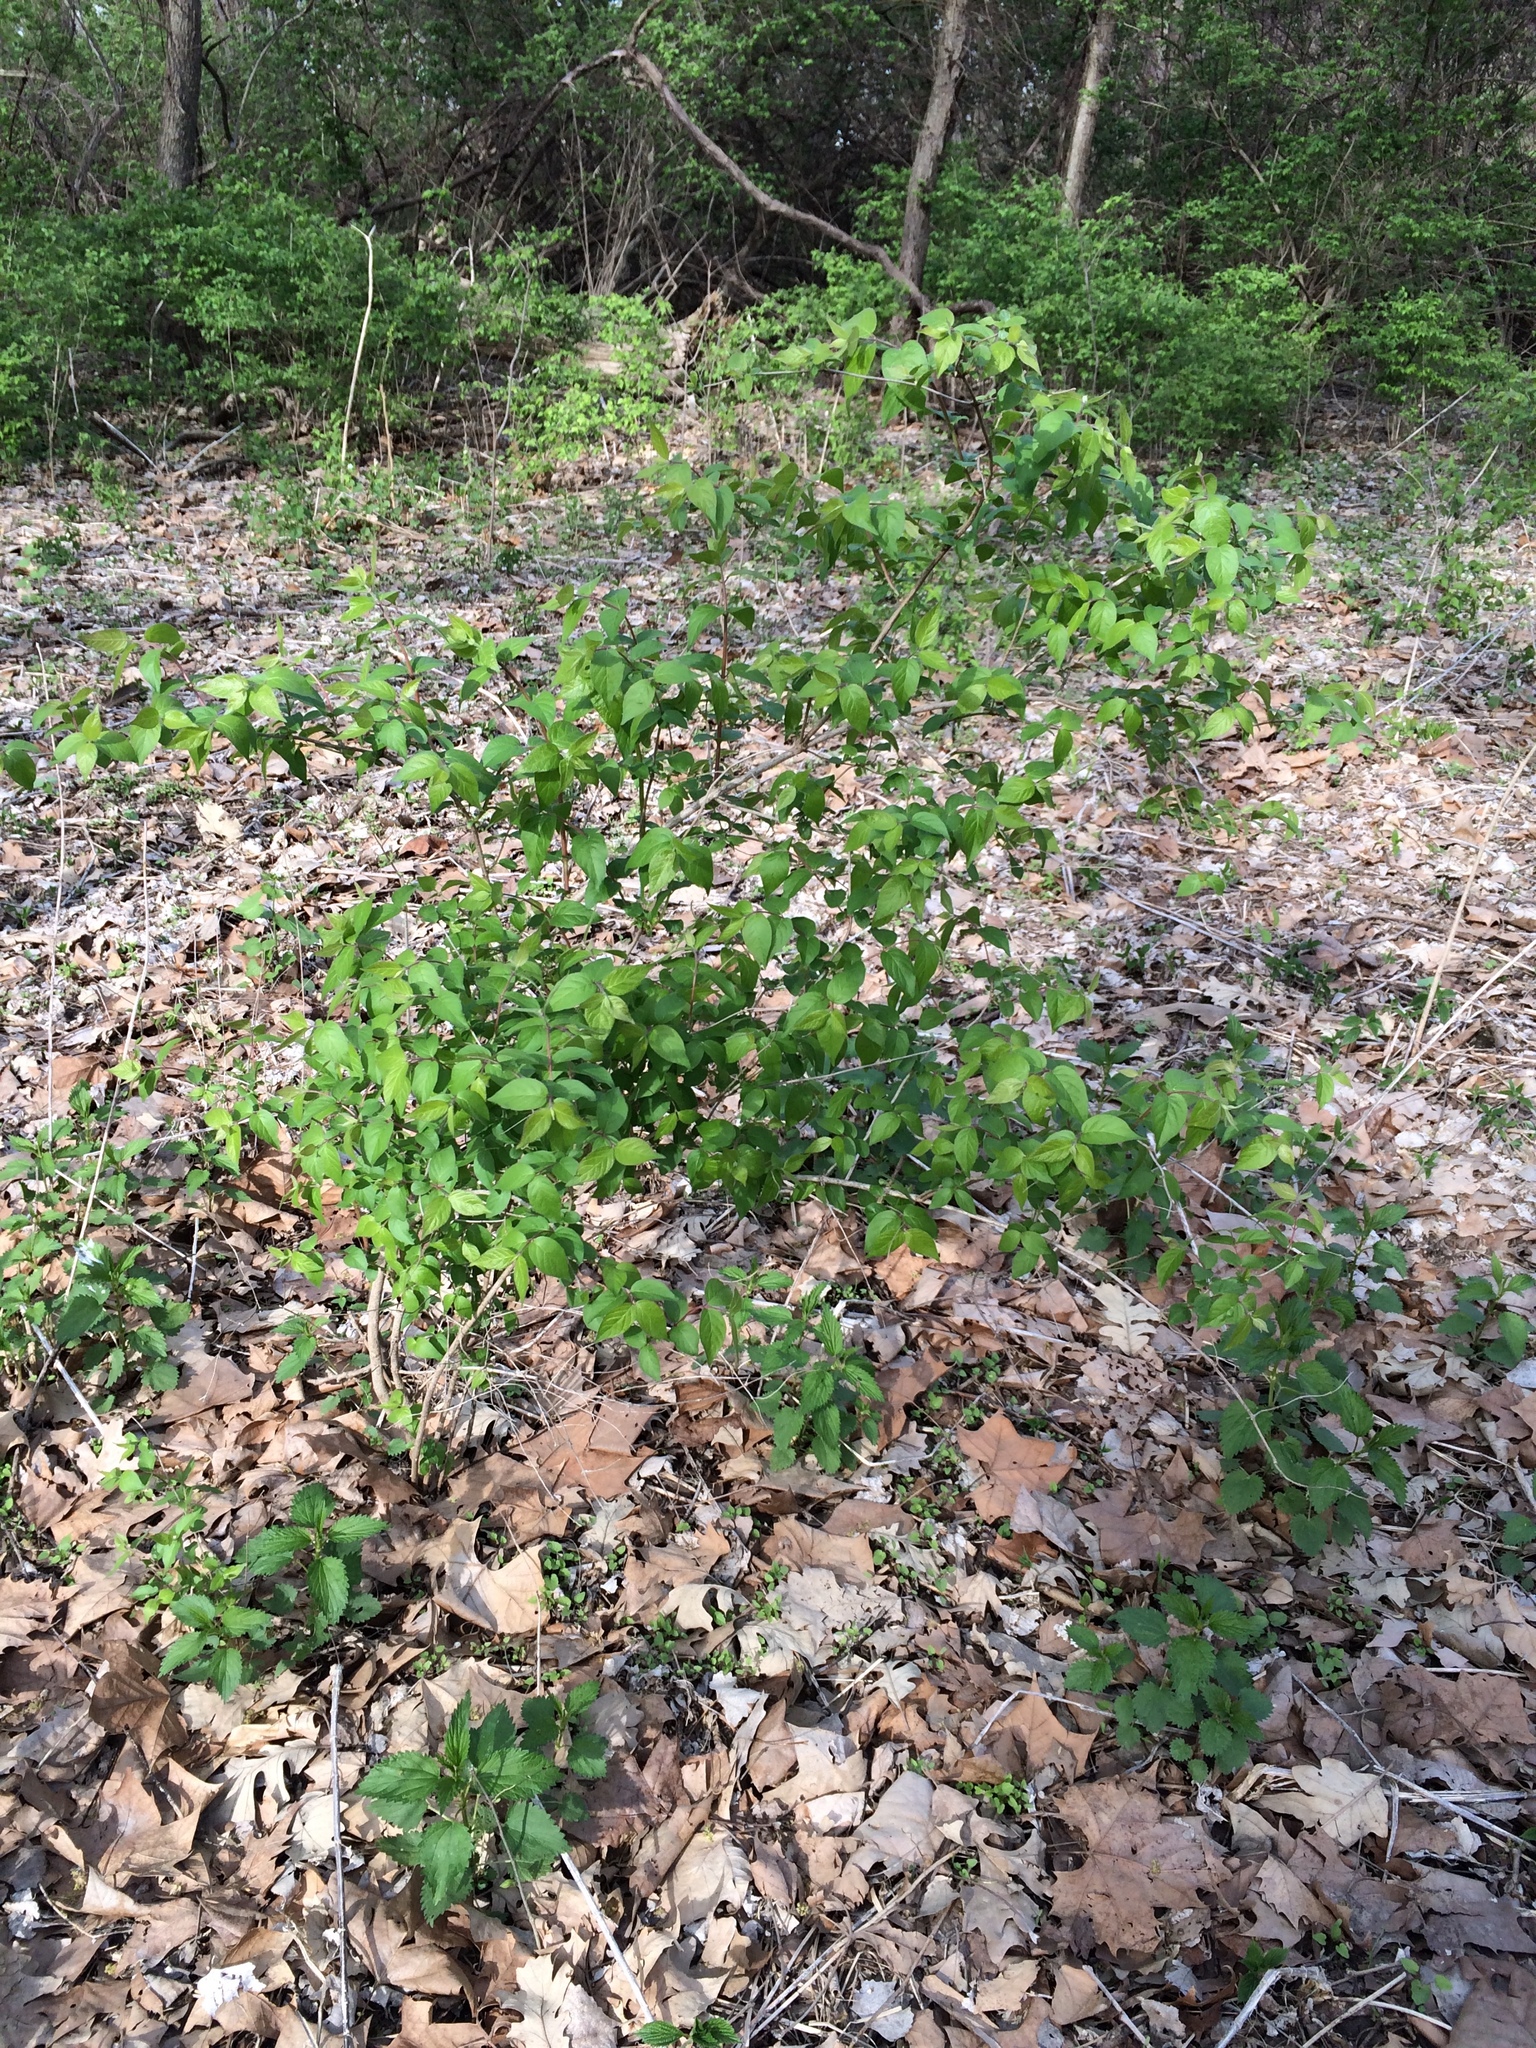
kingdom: Plantae
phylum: Tracheophyta
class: Magnoliopsida
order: Dipsacales
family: Caprifoliaceae
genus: Lonicera
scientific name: Lonicera maackii
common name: Amur honeysuckle
